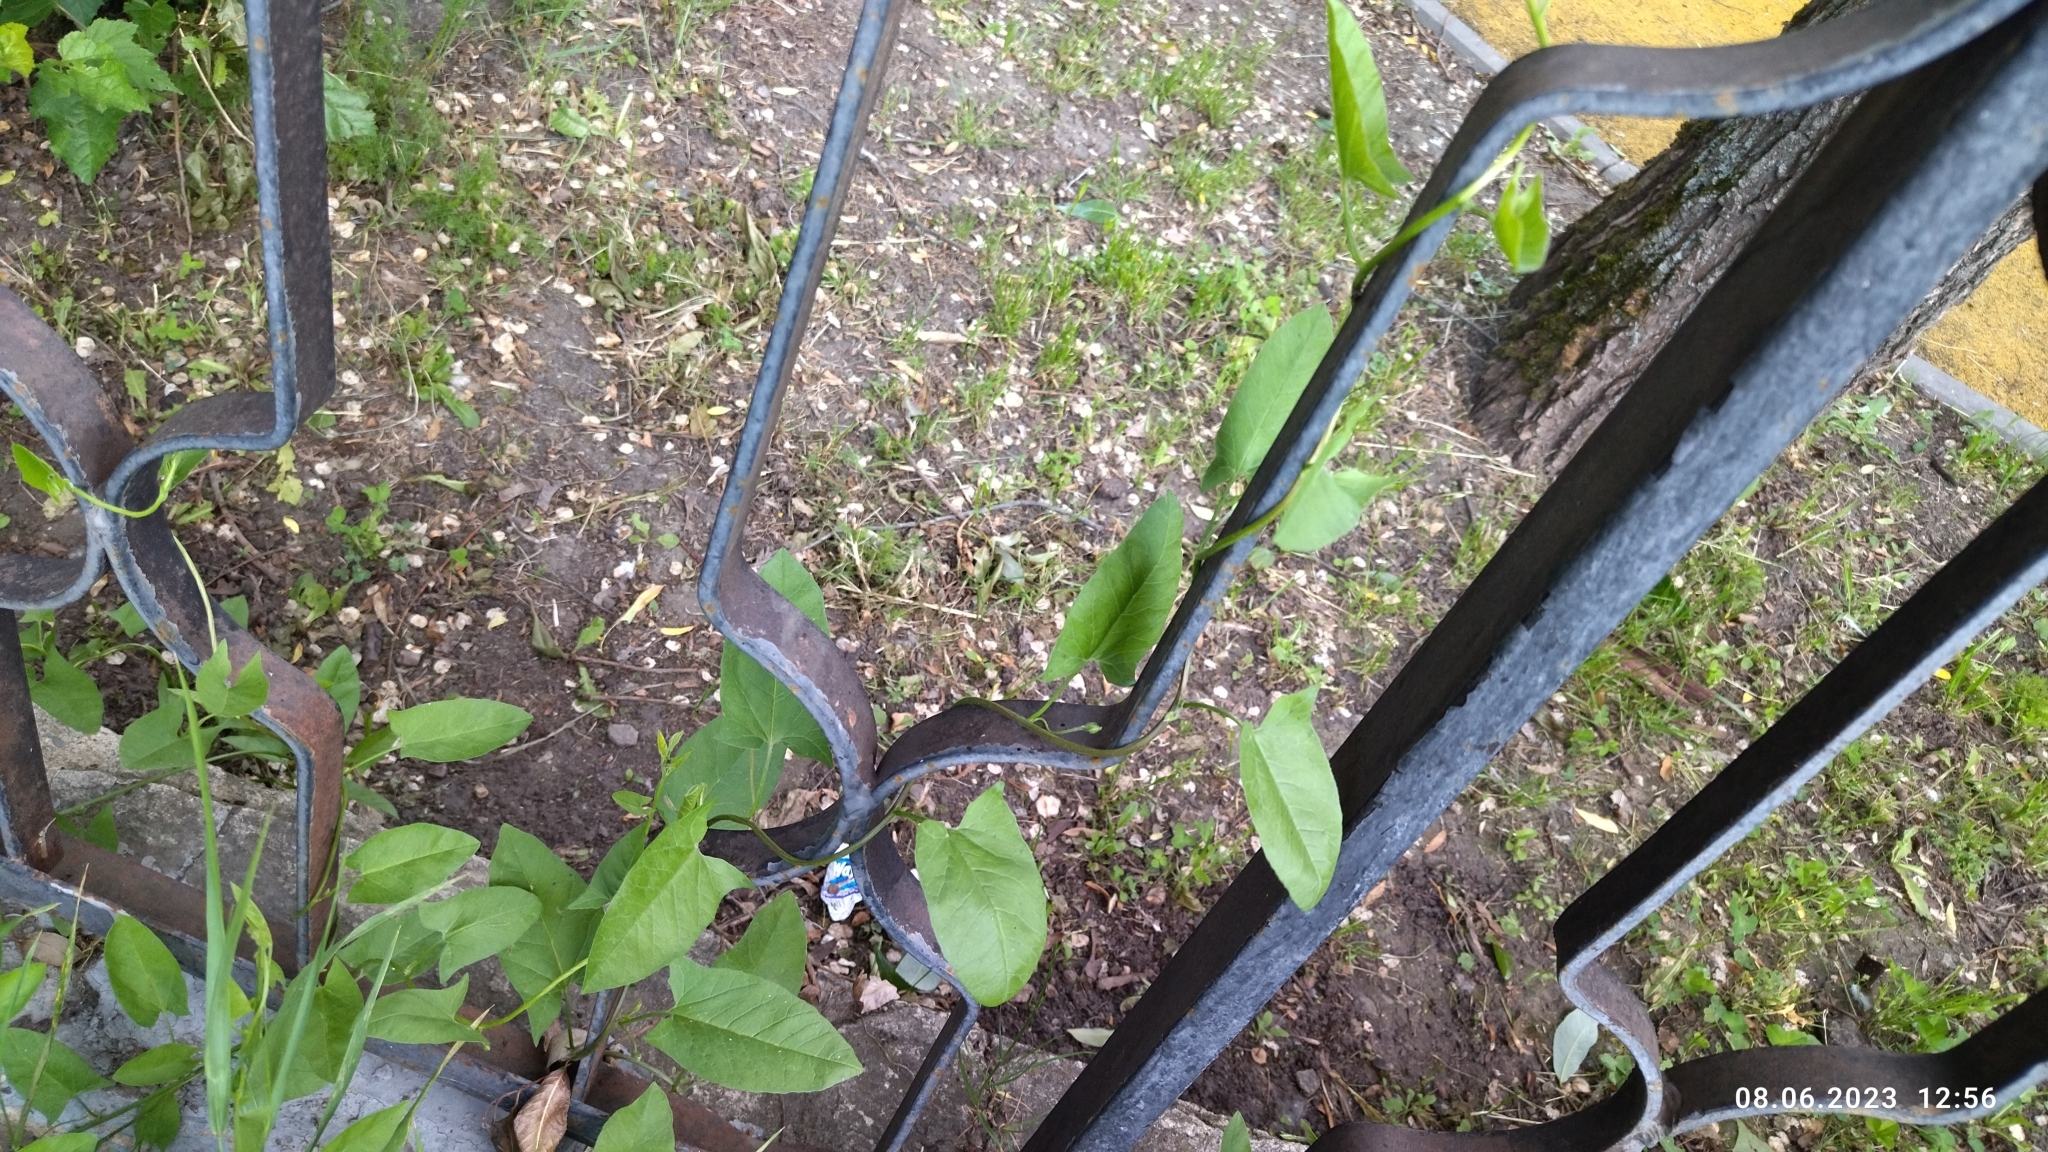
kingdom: Plantae
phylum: Tracheophyta
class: Magnoliopsida
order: Solanales
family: Convolvulaceae
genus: Convolvulus
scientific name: Convolvulus arvensis
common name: Field bindweed
